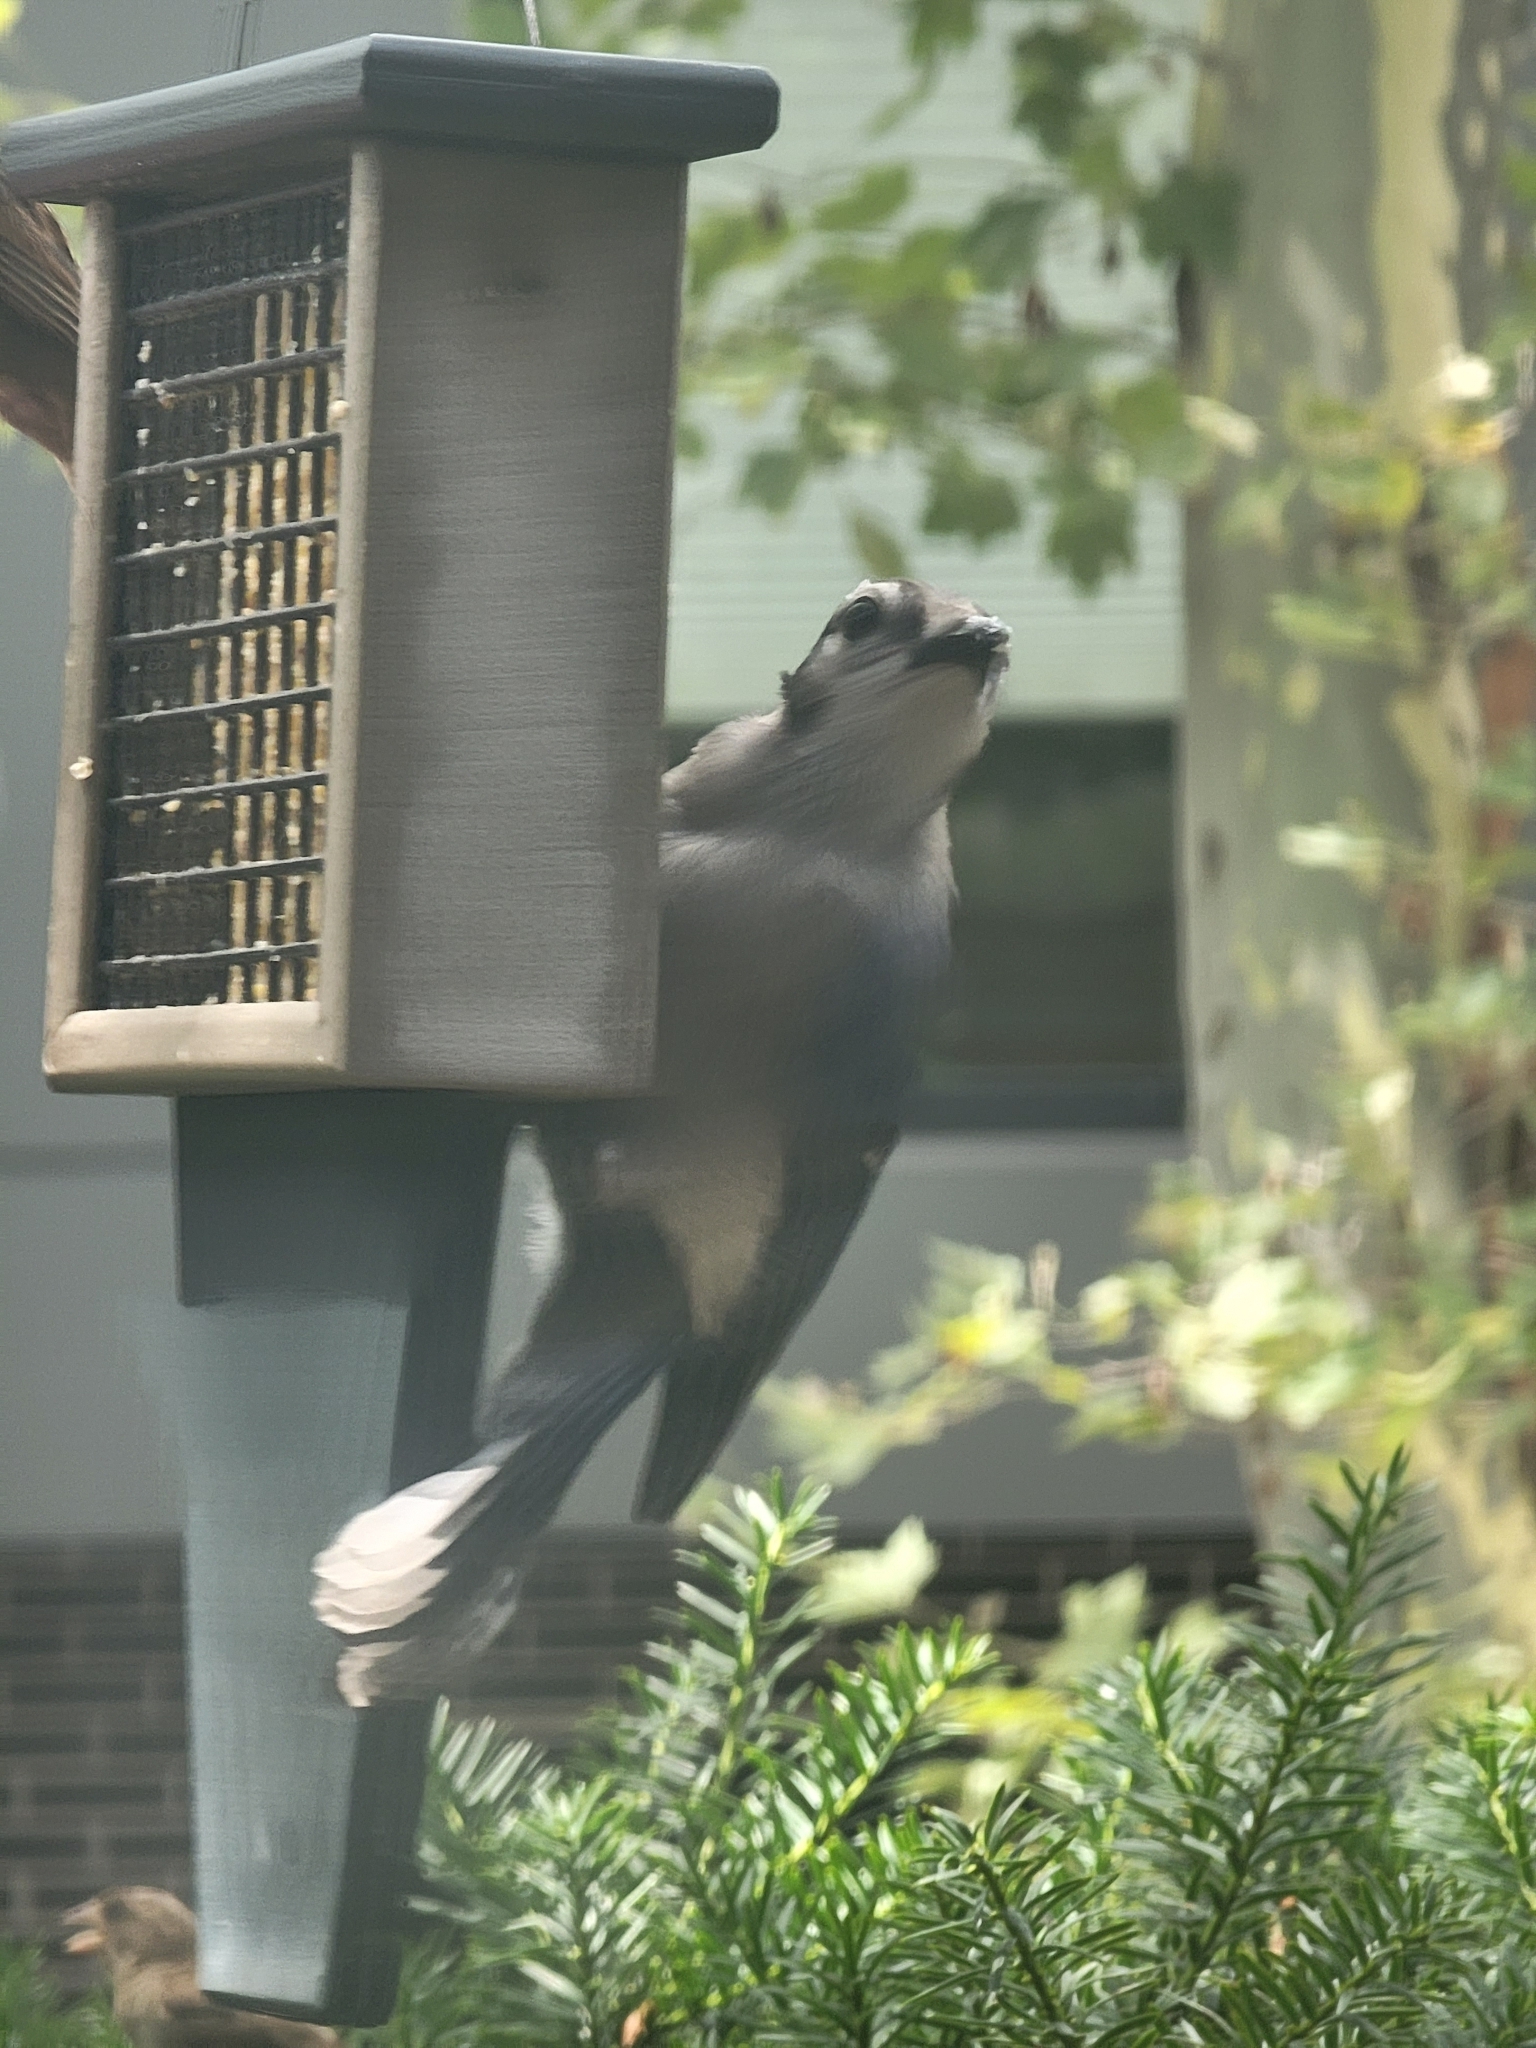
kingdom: Animalia
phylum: Chordata
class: Aves
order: Passeriformes
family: Corvidae
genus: Cyanocitta
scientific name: Cyanocitta cristata
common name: Blue jay
